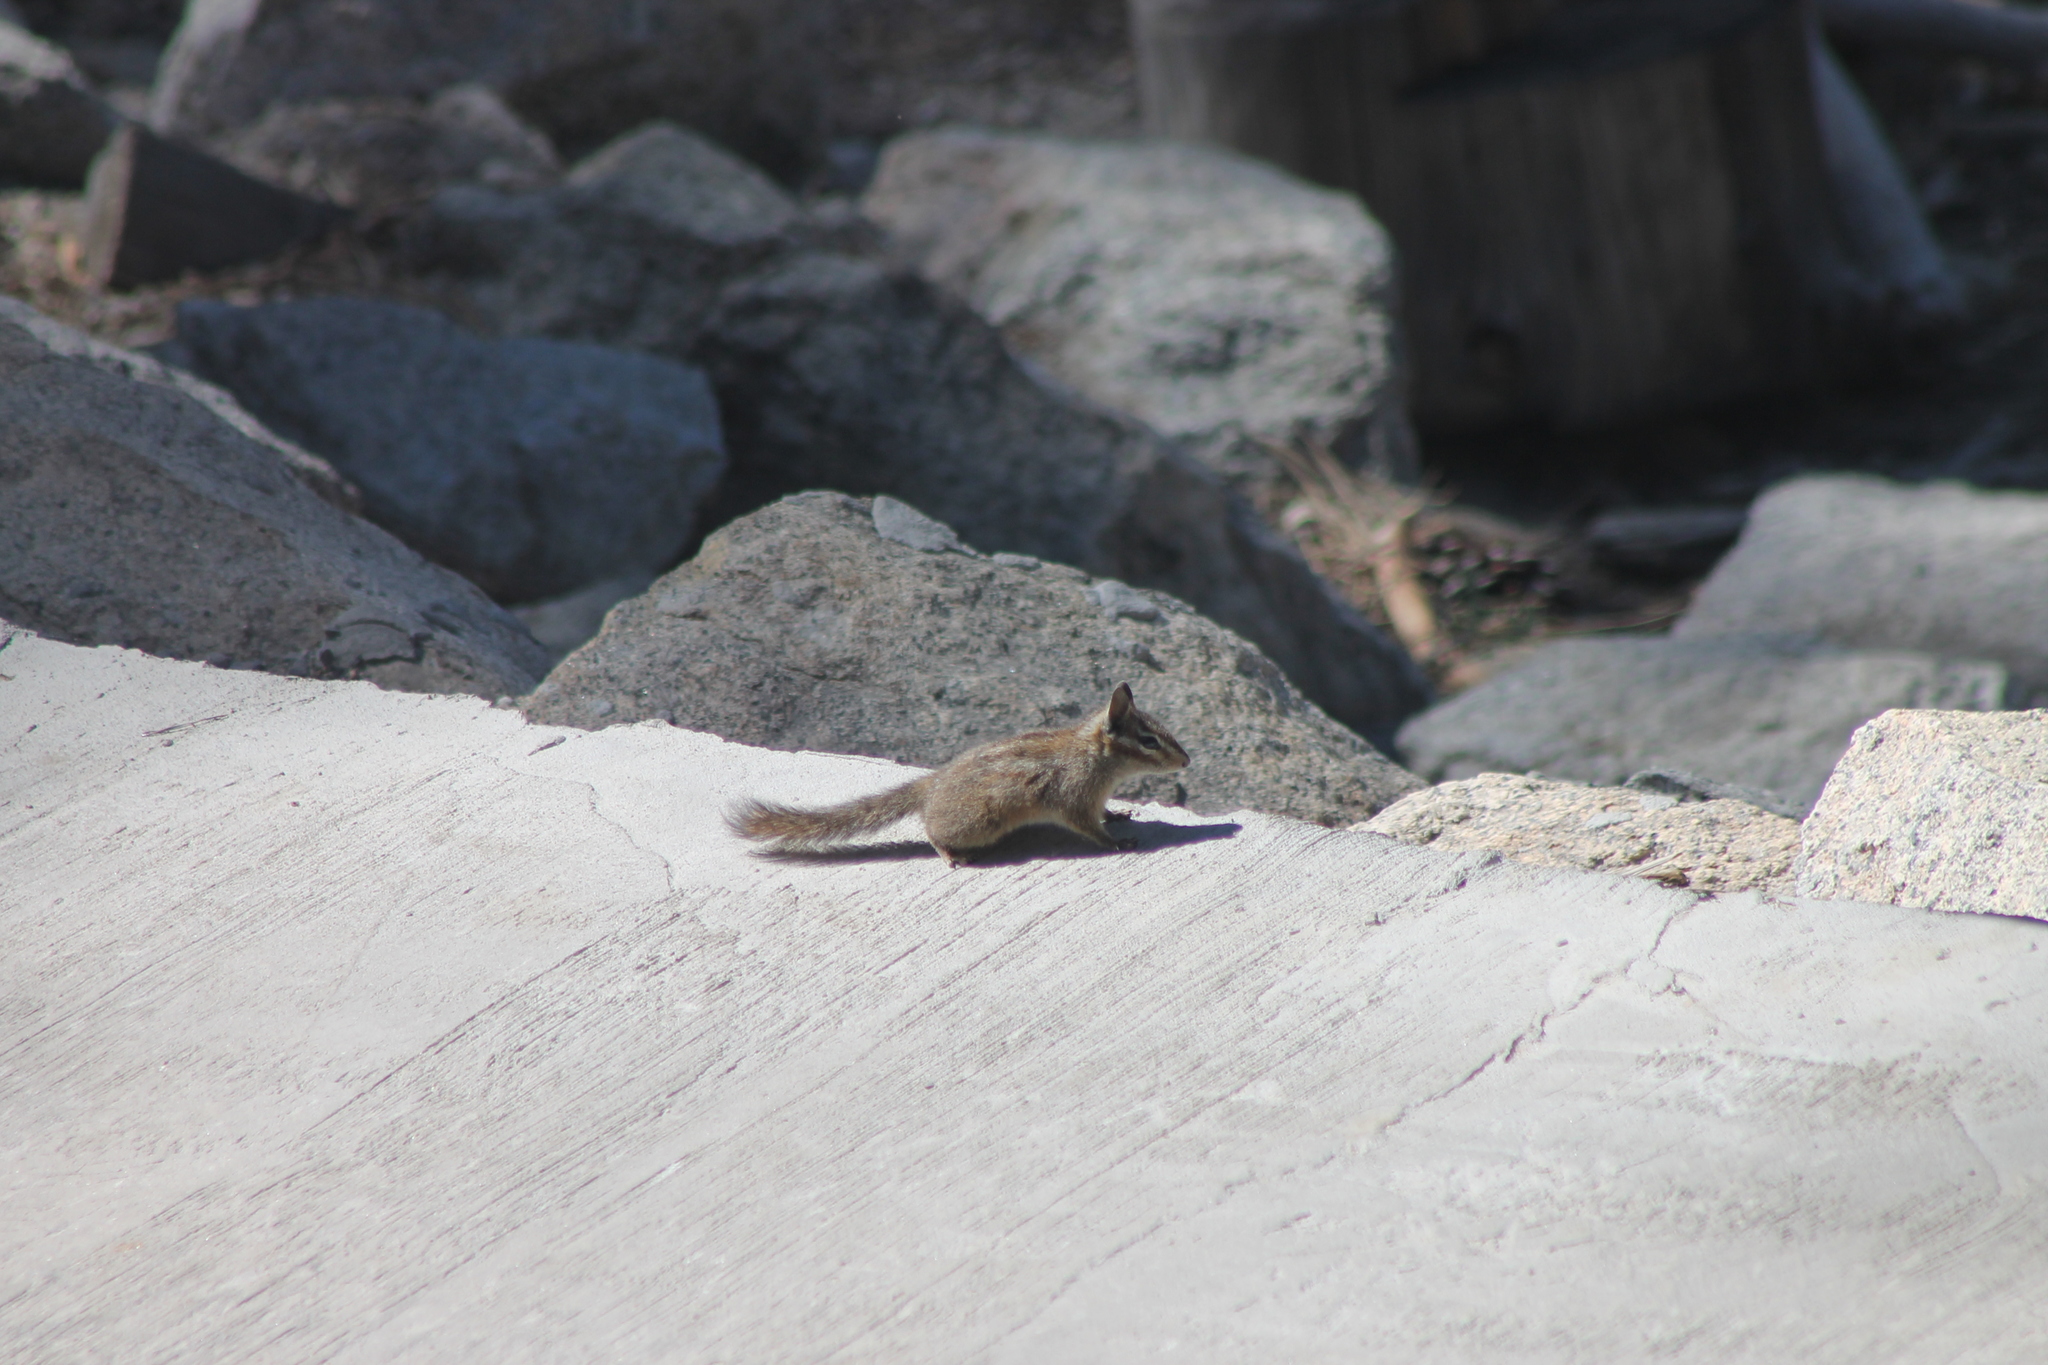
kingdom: Animalia
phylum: Chordata
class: Mammalia
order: Rodentia
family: Sciuridae
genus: Tamias
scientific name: Tamias merriami
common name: Merriam's chipmunk
